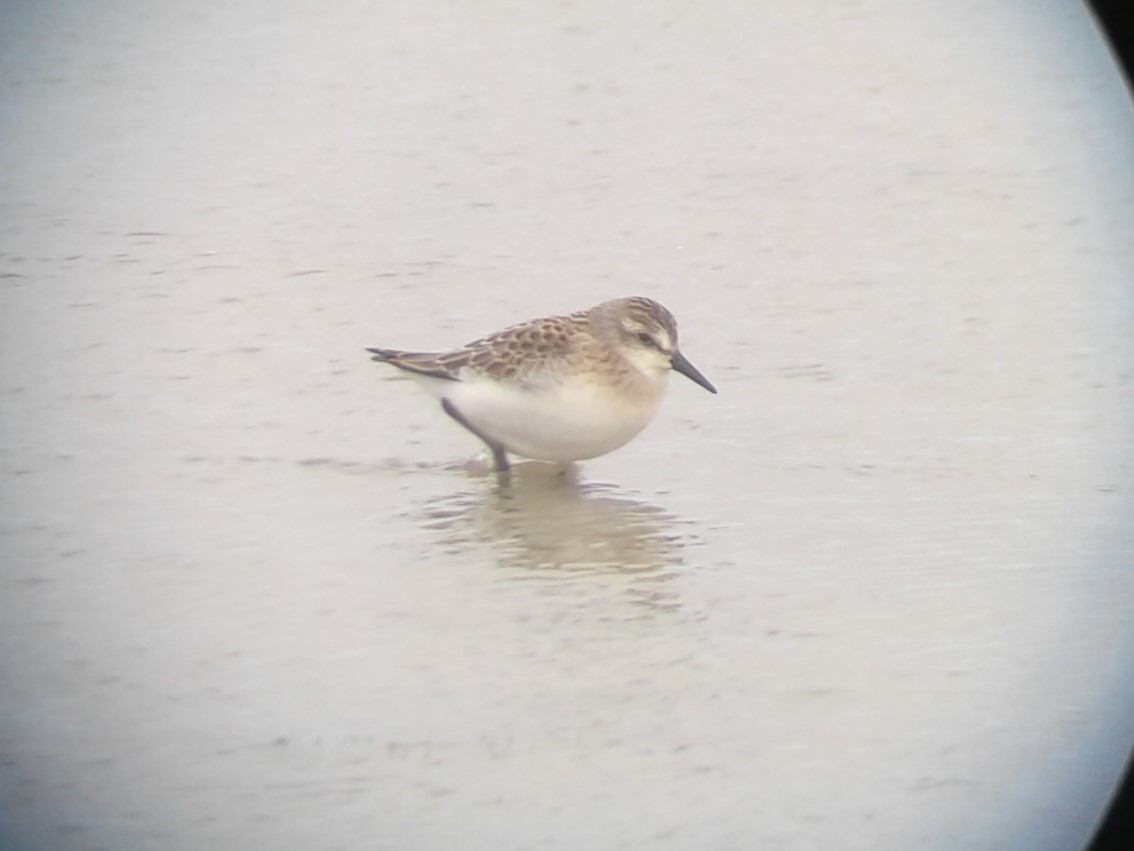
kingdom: Animalia
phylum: Chordata
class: Aves
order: Charadriiformes
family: Scolopacidae
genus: Calidris
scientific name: Calidris pusilla
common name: Semipalmated sandpiper
